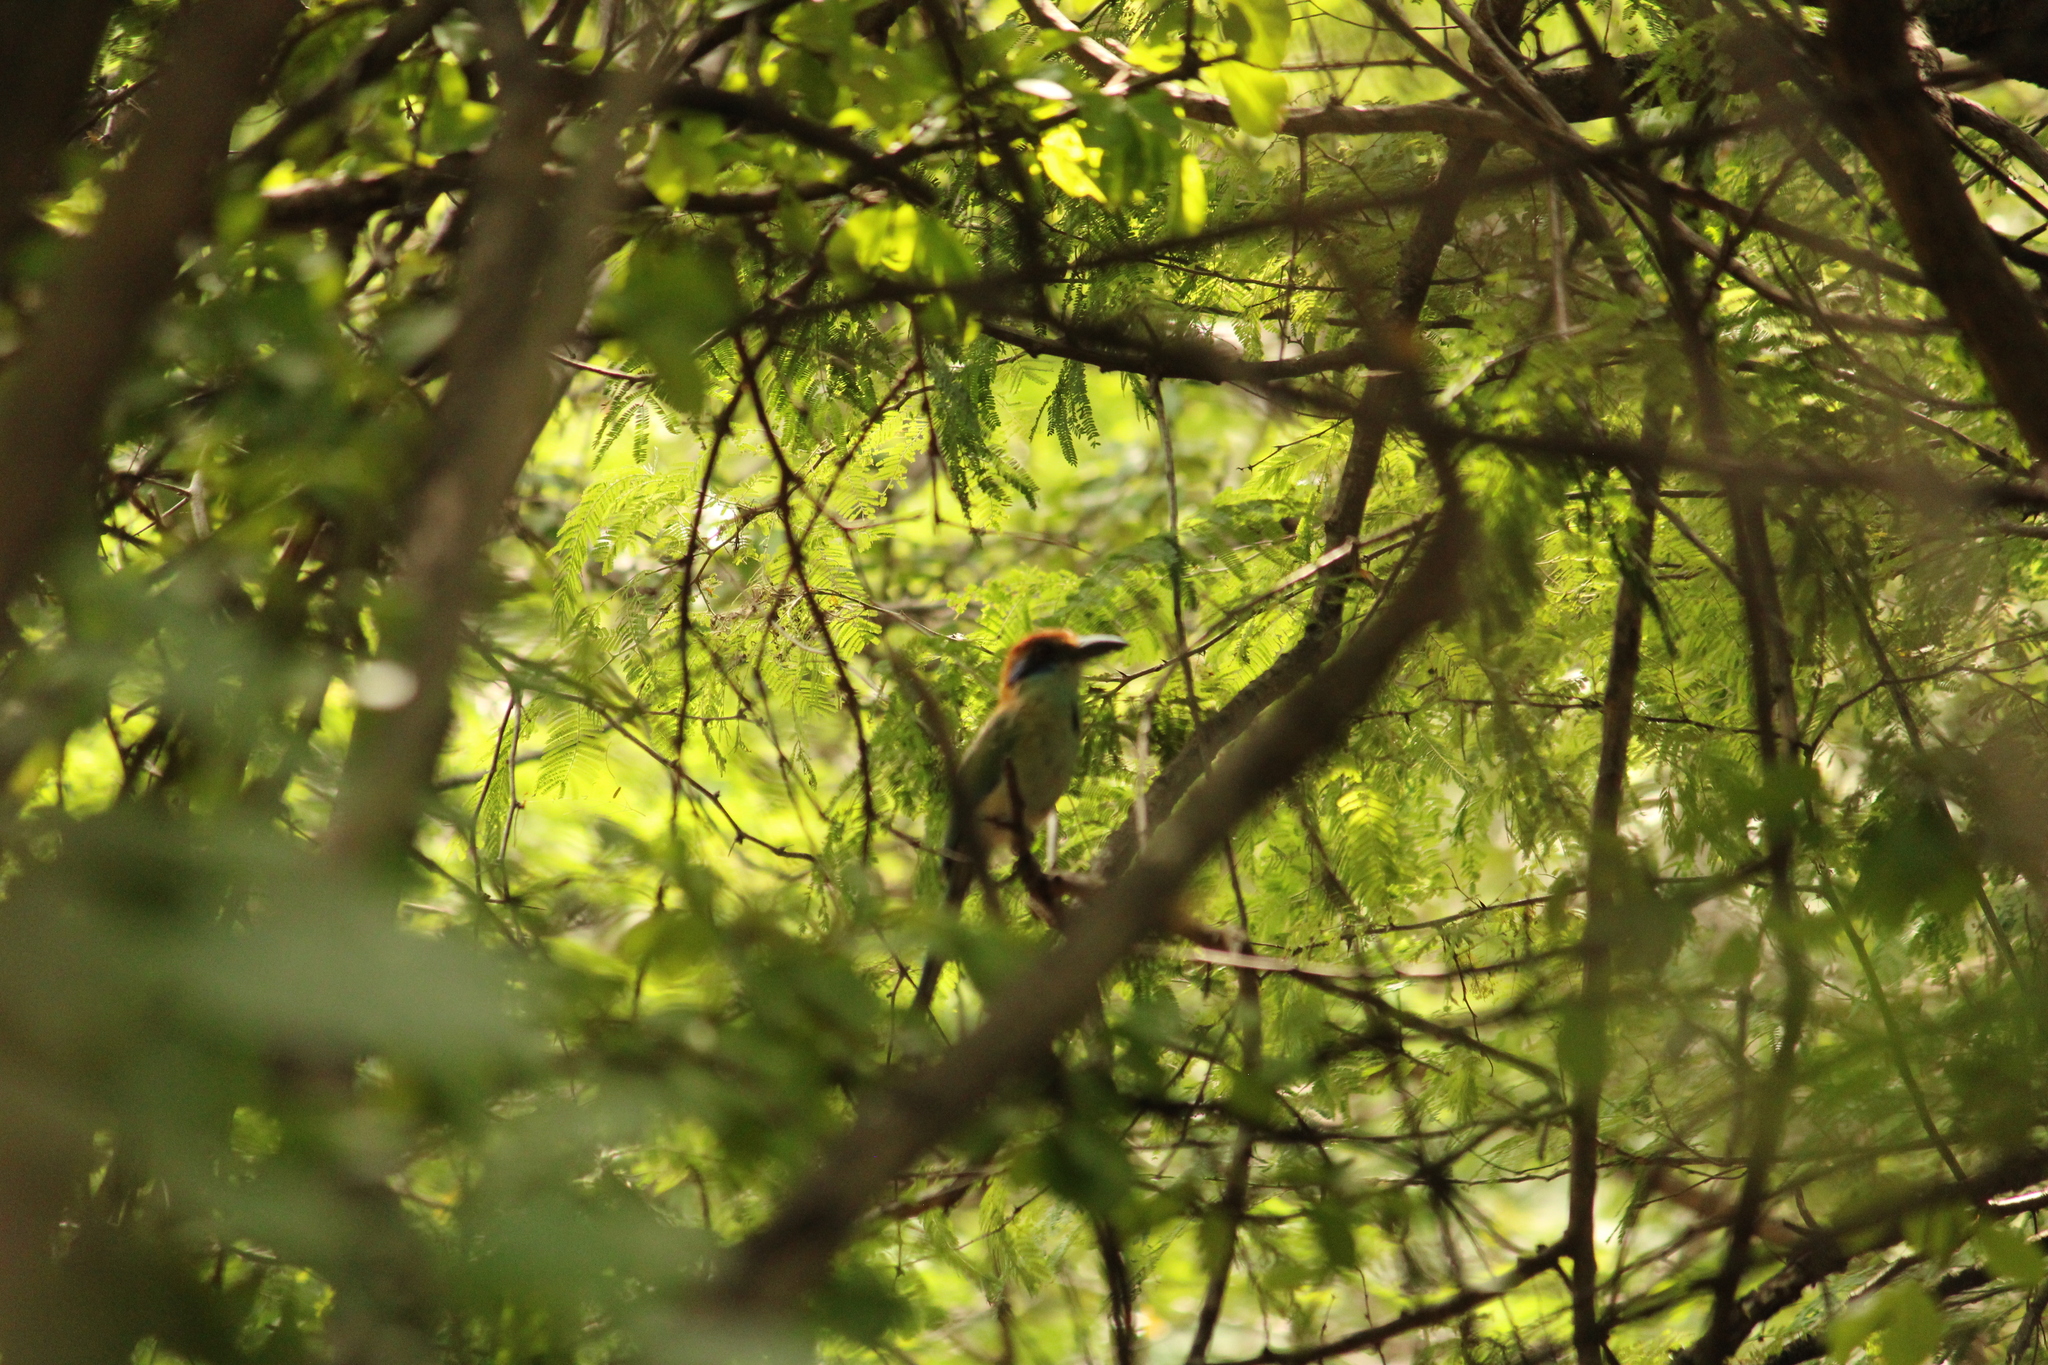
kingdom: Animalia
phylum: Chordata
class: Aves
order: Coraciiformes
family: Momotidae
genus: Momotus
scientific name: Momotus mexicanus
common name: Russet-crowned motmot
